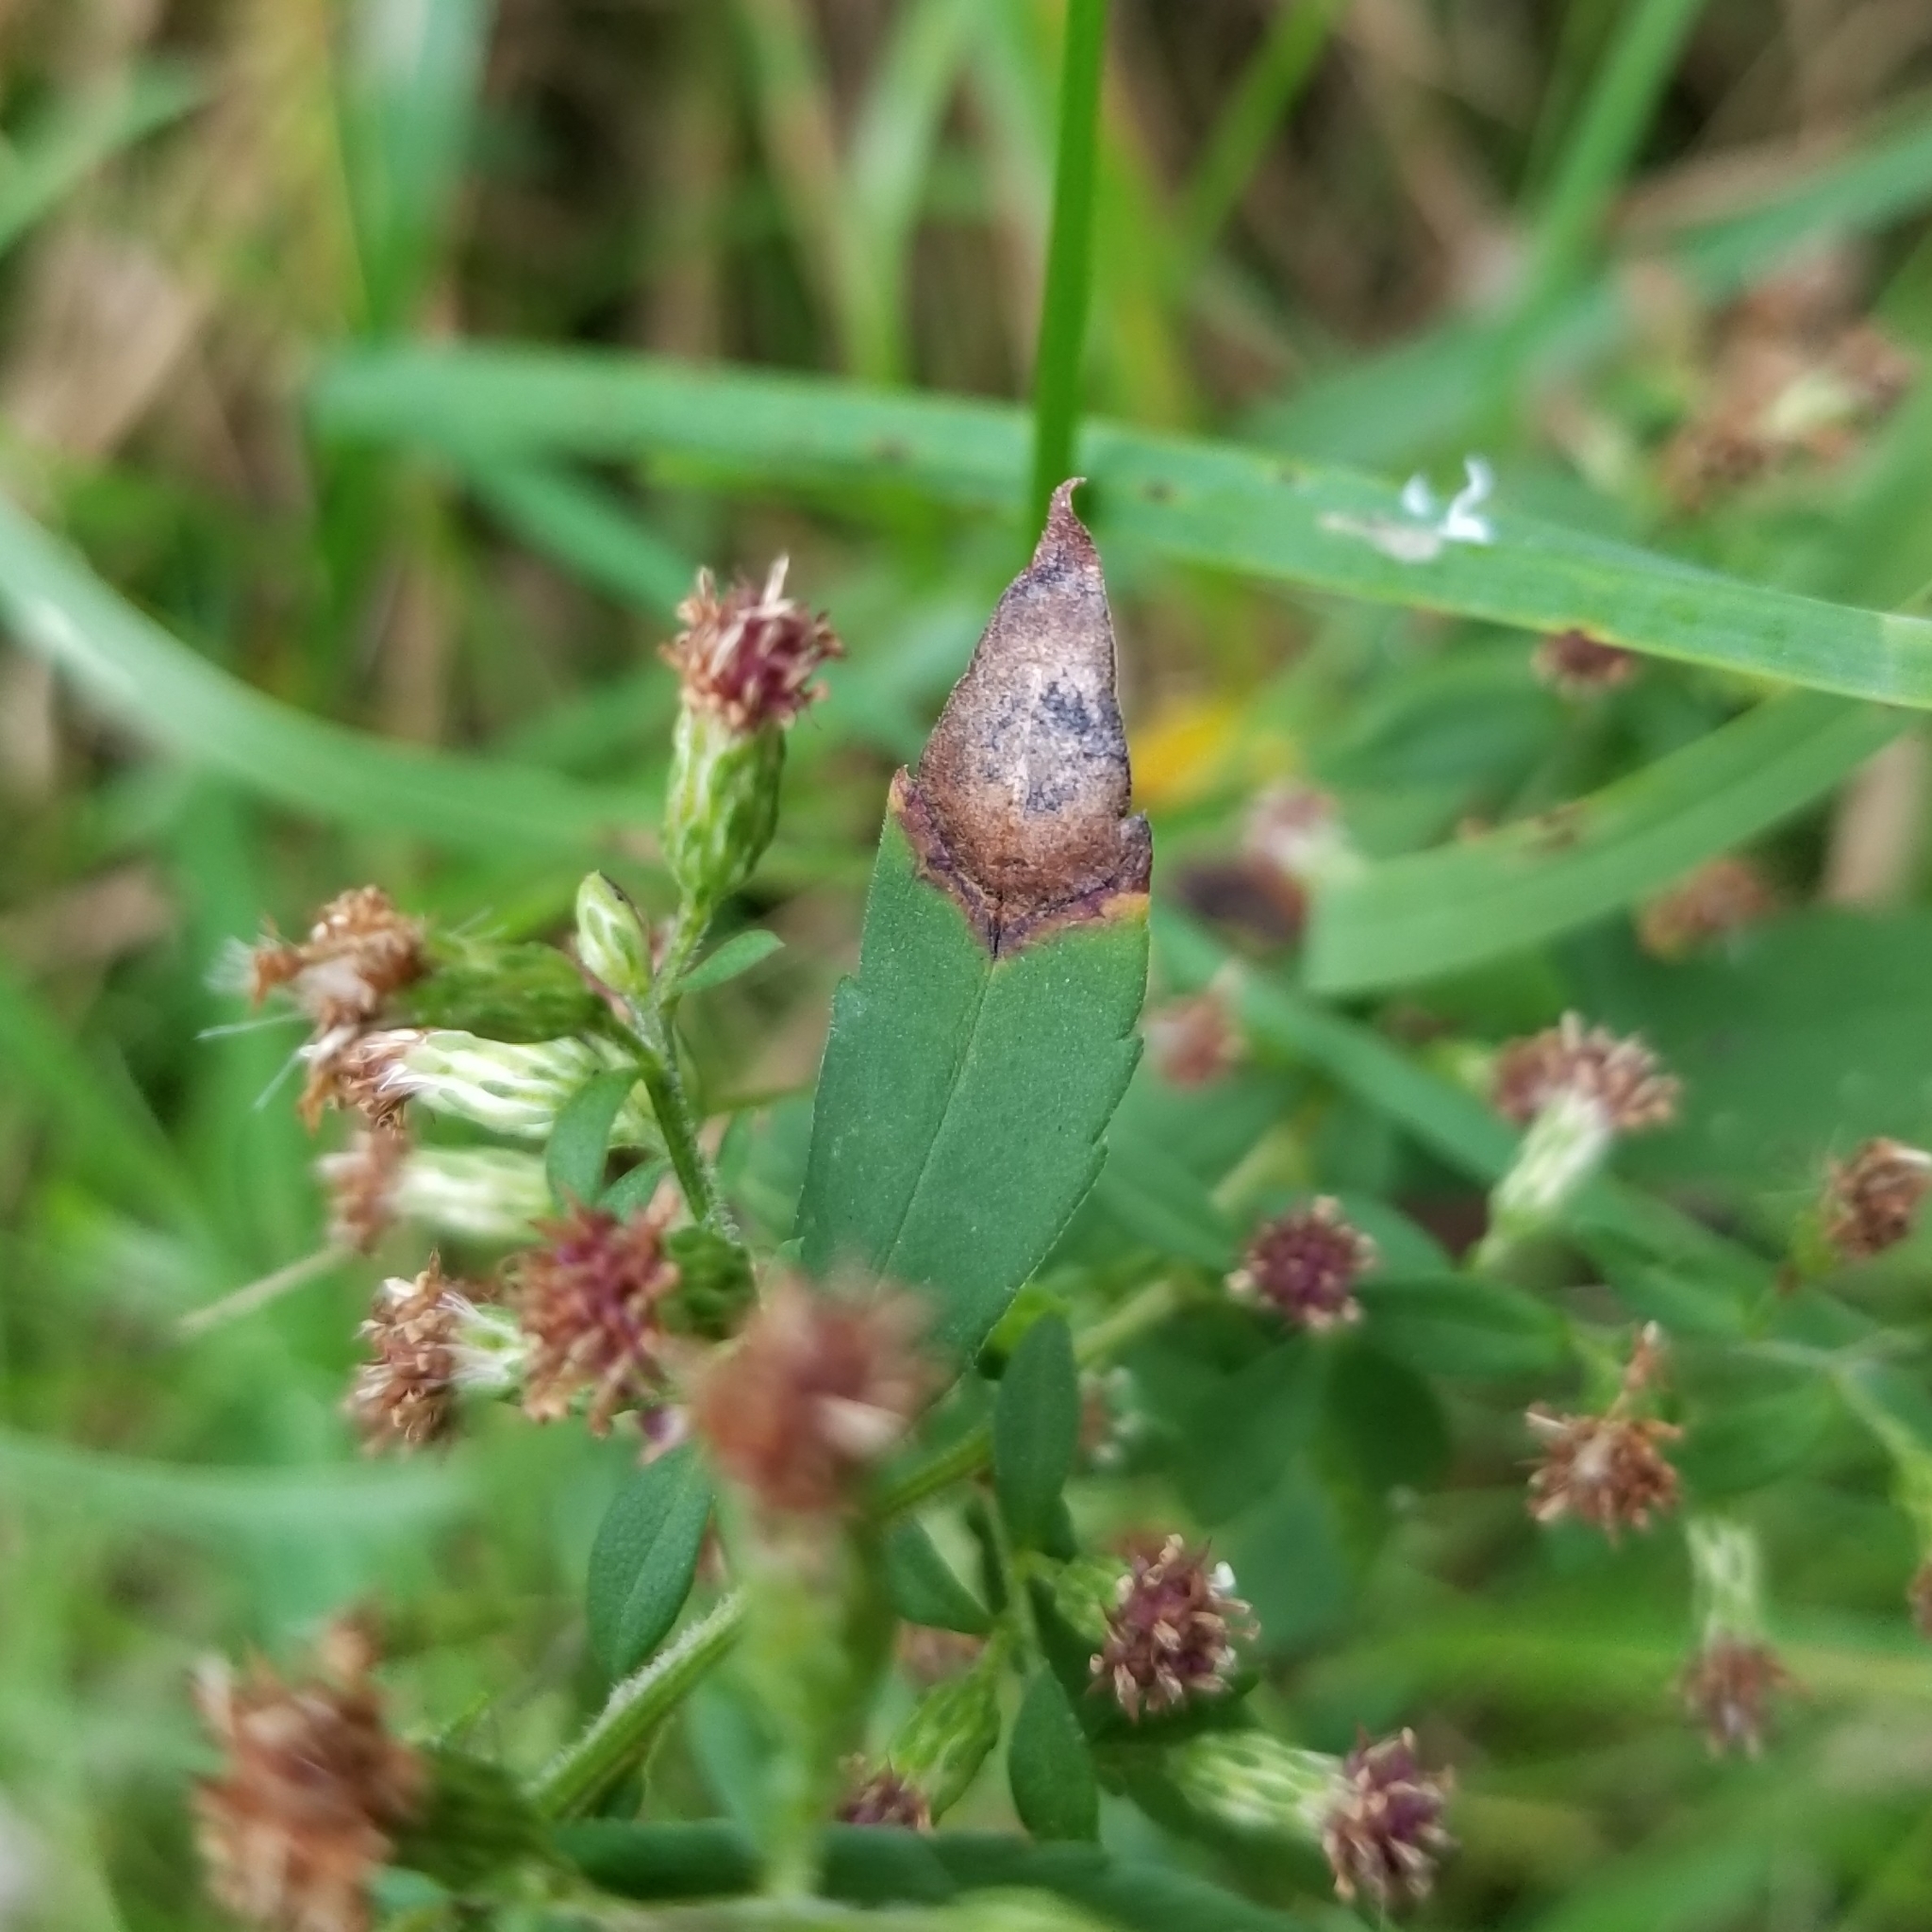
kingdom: Animalia
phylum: Arthropoda
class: Insecta
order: Diptera
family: Cecidomyiidae
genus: Asteromyia
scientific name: Asteromyia laeviana
